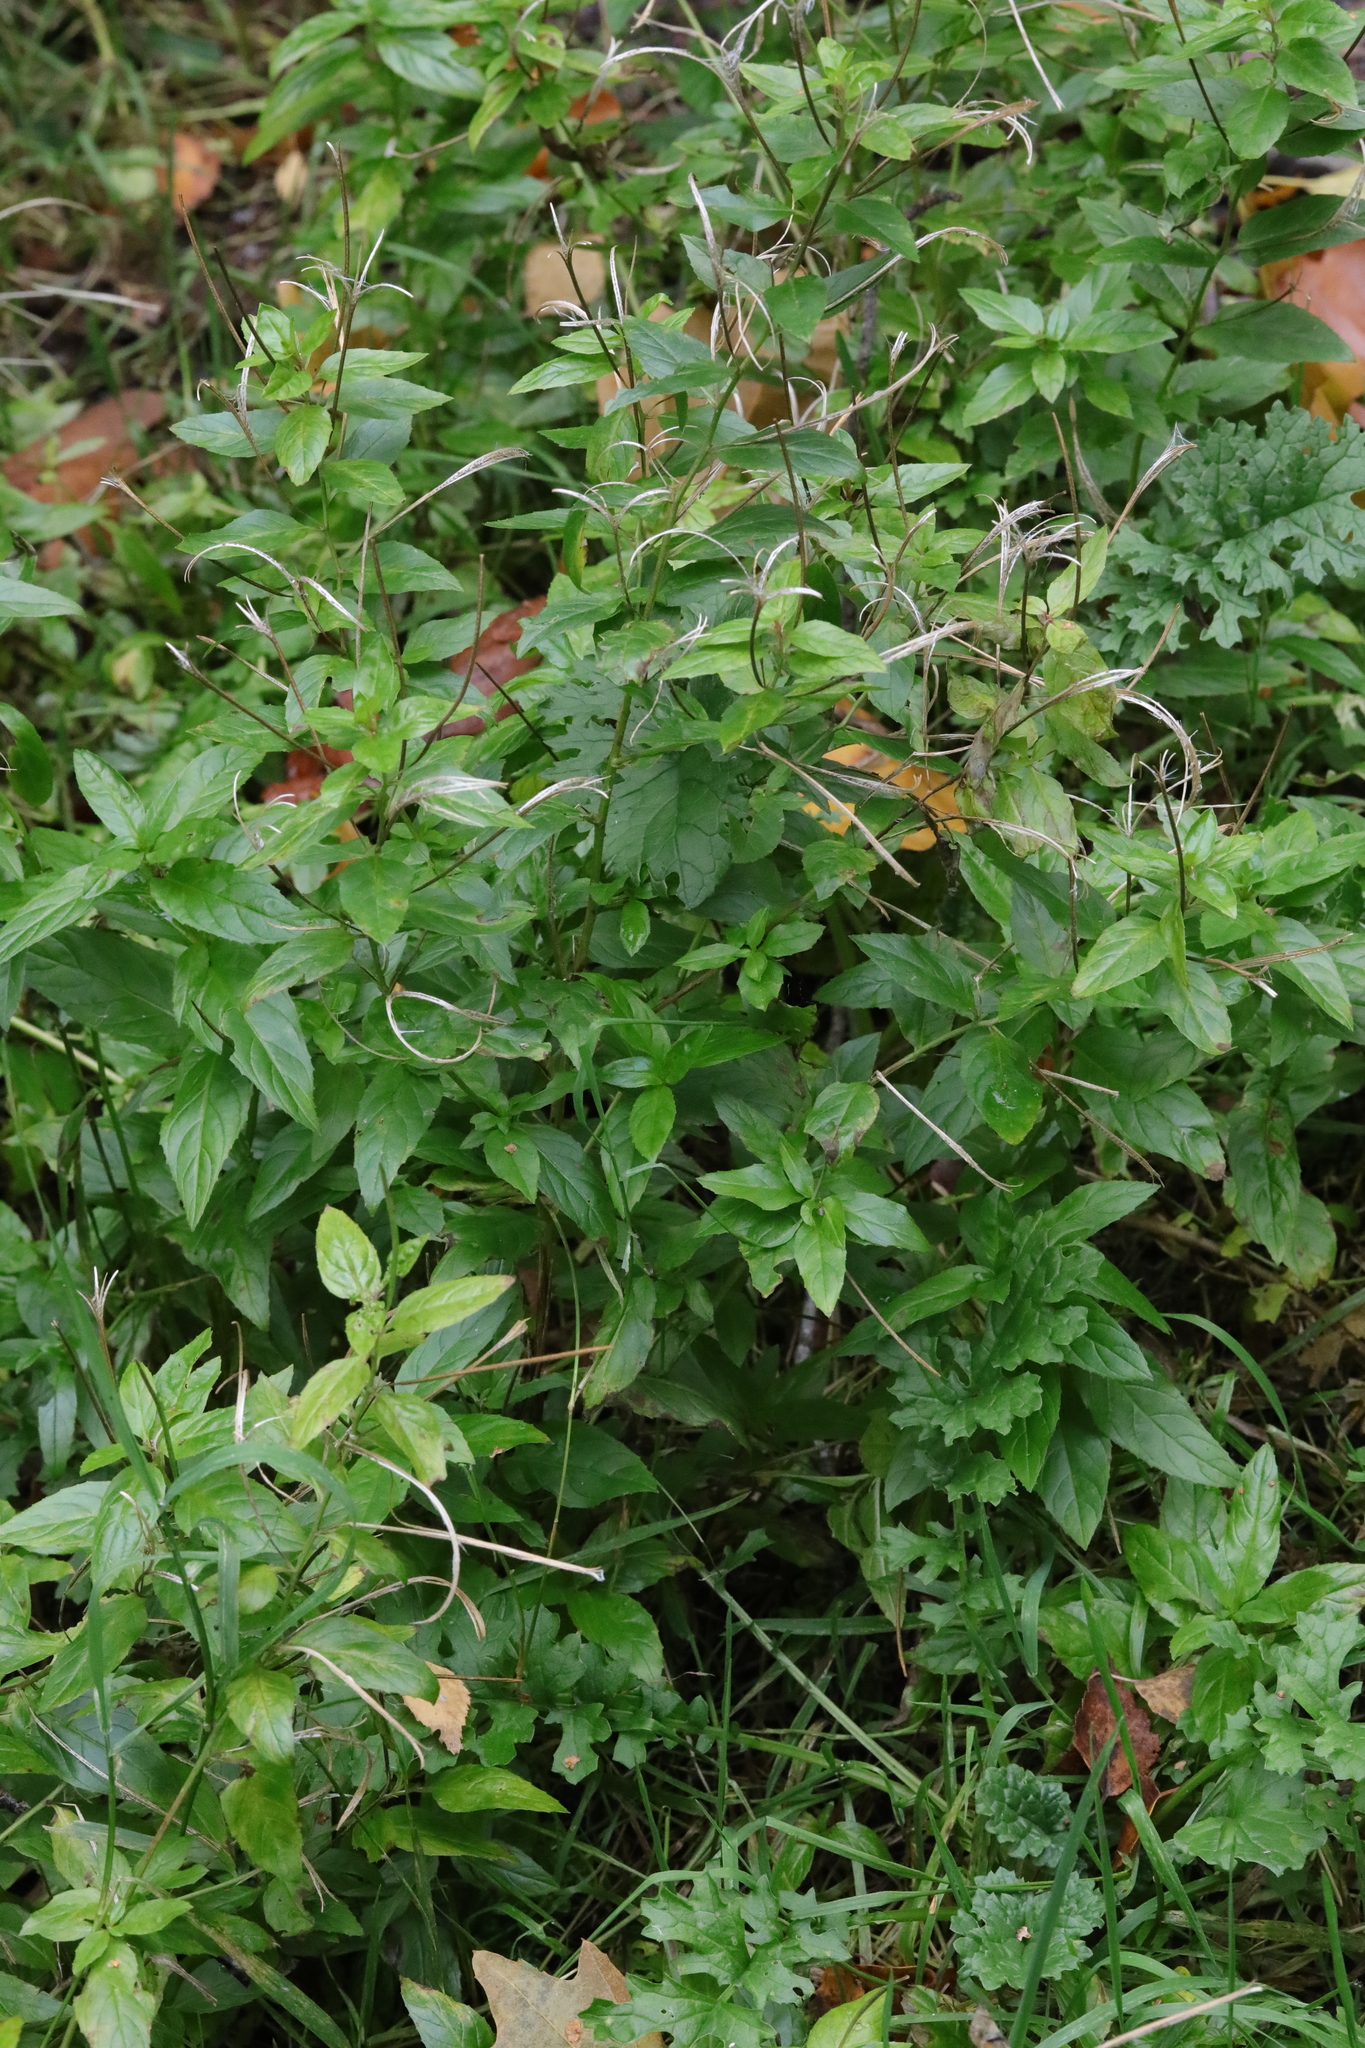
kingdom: Plantae
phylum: Tracheophyta
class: Magnoliopsida
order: Myrtales
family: Onagraceae
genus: Epilobium
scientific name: Epilobium montanum
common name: Broad-leaved willowherb
